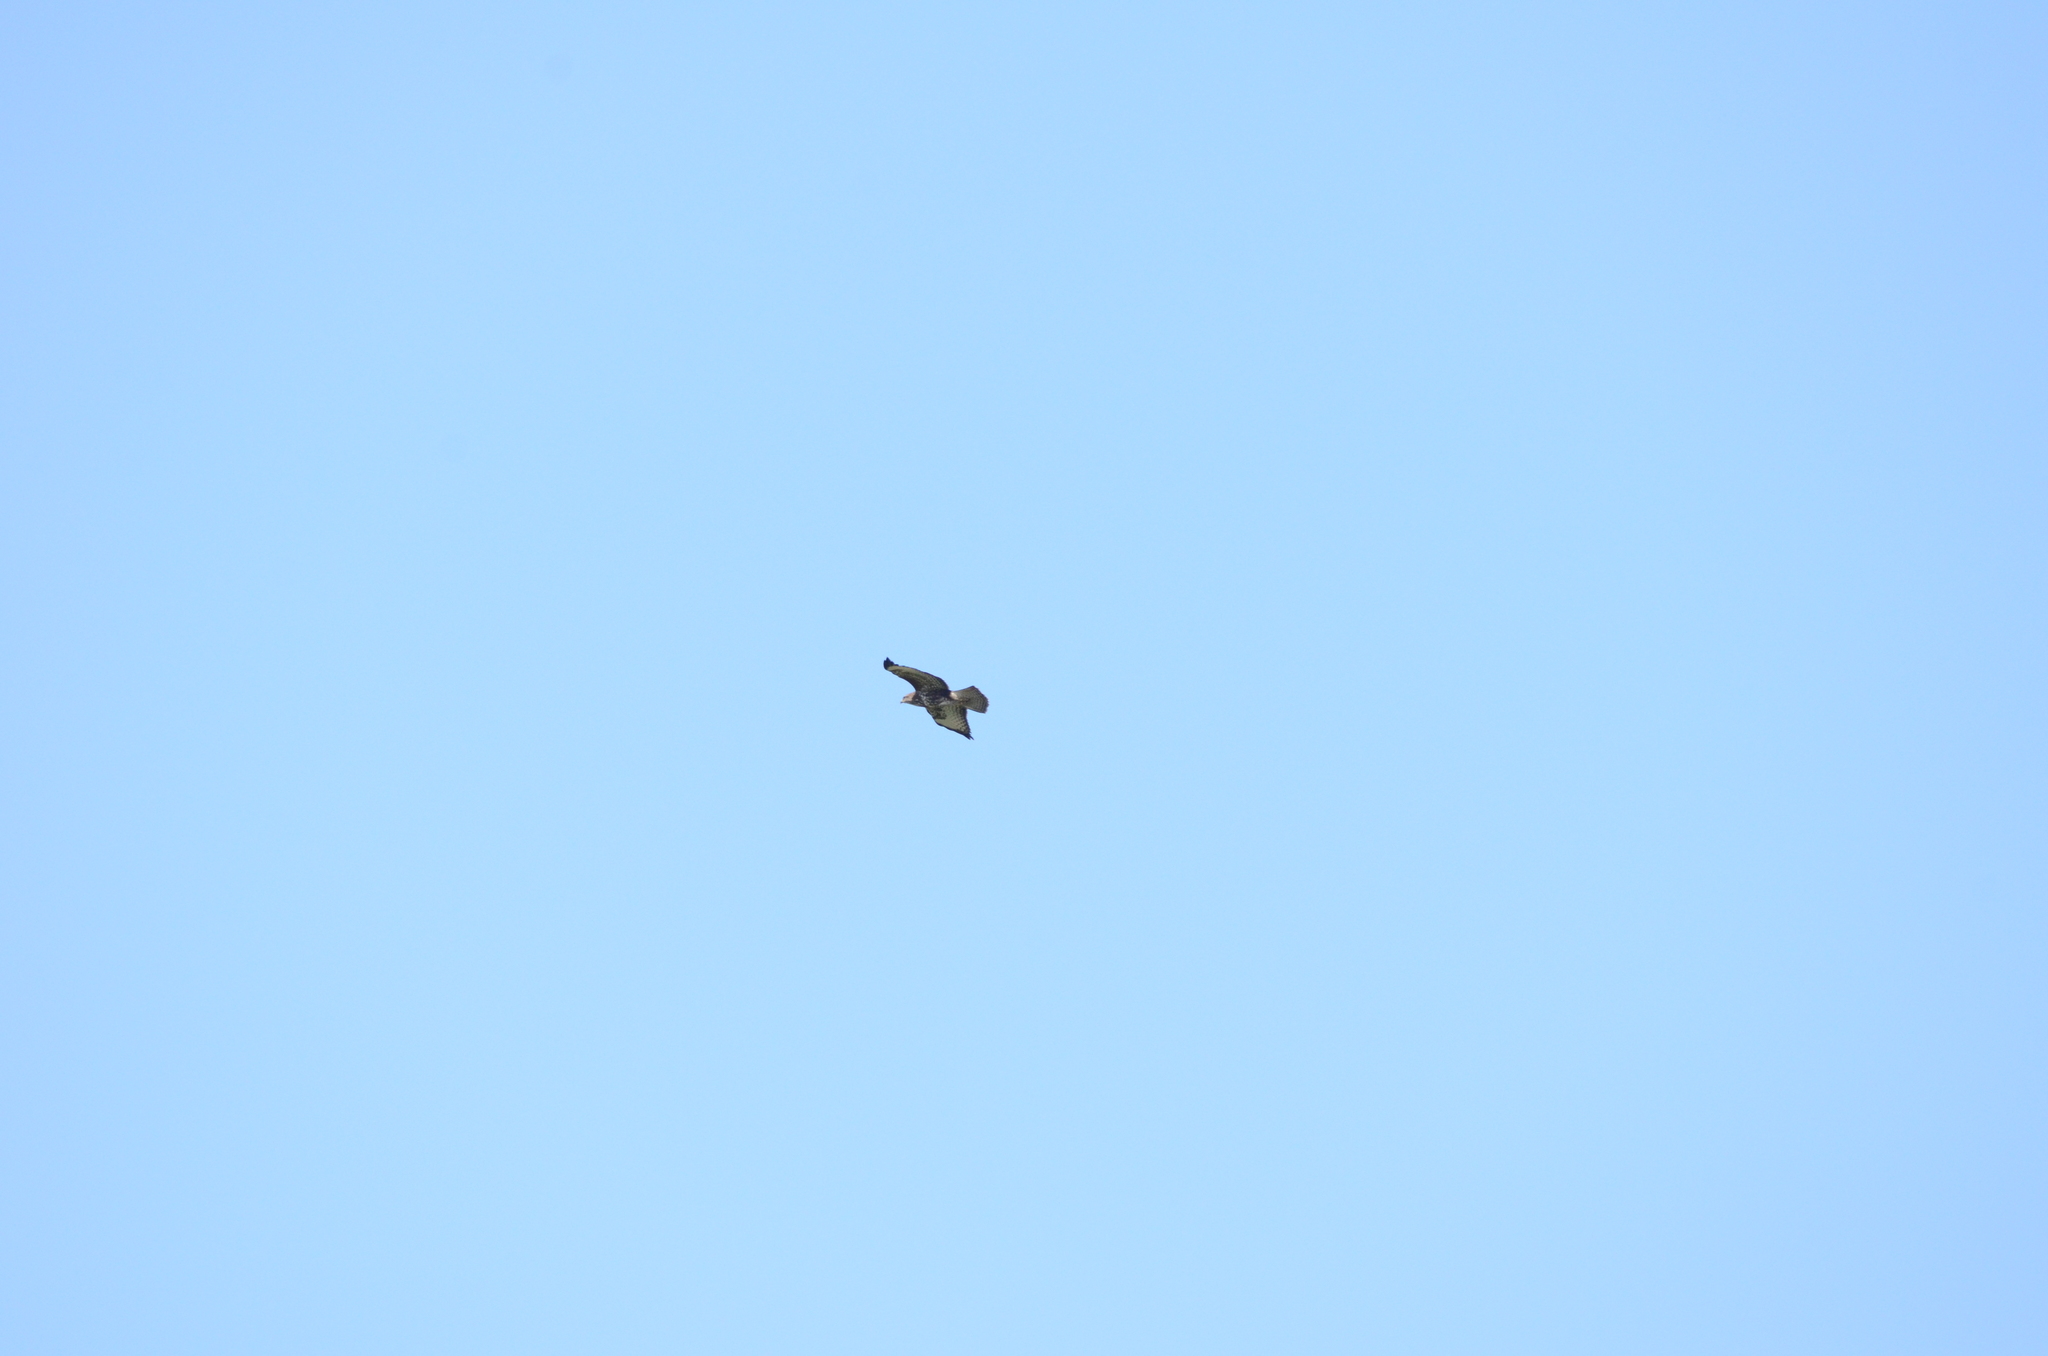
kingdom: Animalia
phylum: Chordata
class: Aves
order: Accipitriformes
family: Accipitridae
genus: Buteo
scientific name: Buteo buteo
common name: Common buzzard
